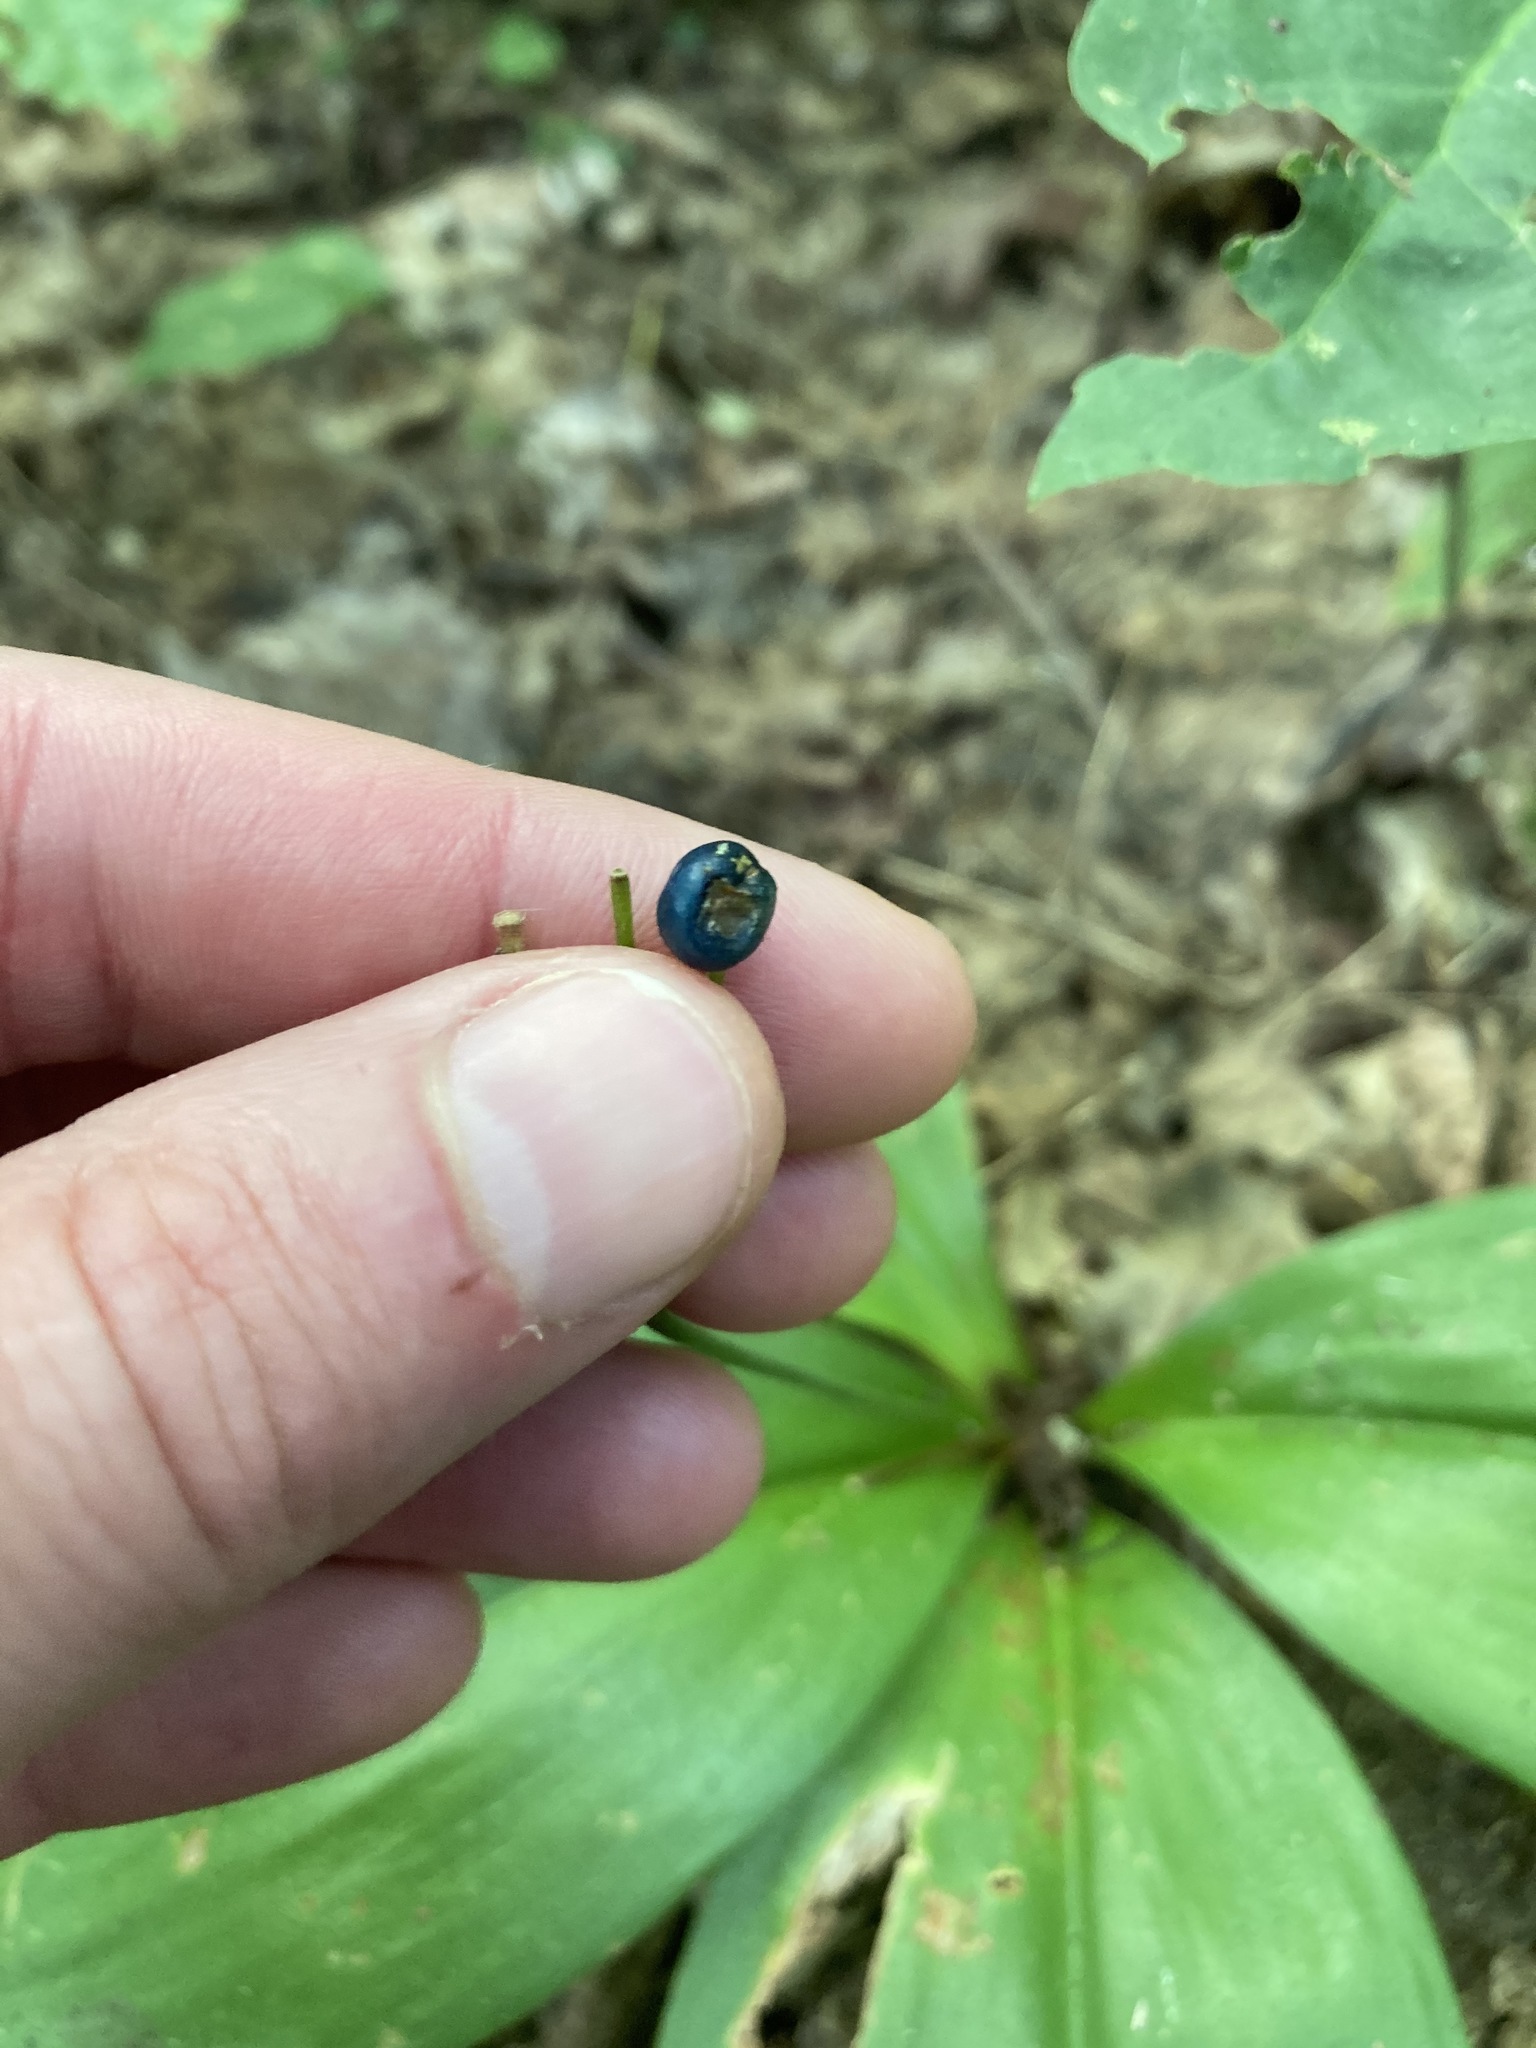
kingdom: Plantae
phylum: Tracheophyta
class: Liliopsida
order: Liliales
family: Liliaceae
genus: Clintonia
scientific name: Clintonia borealis
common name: Yellow clintonia
